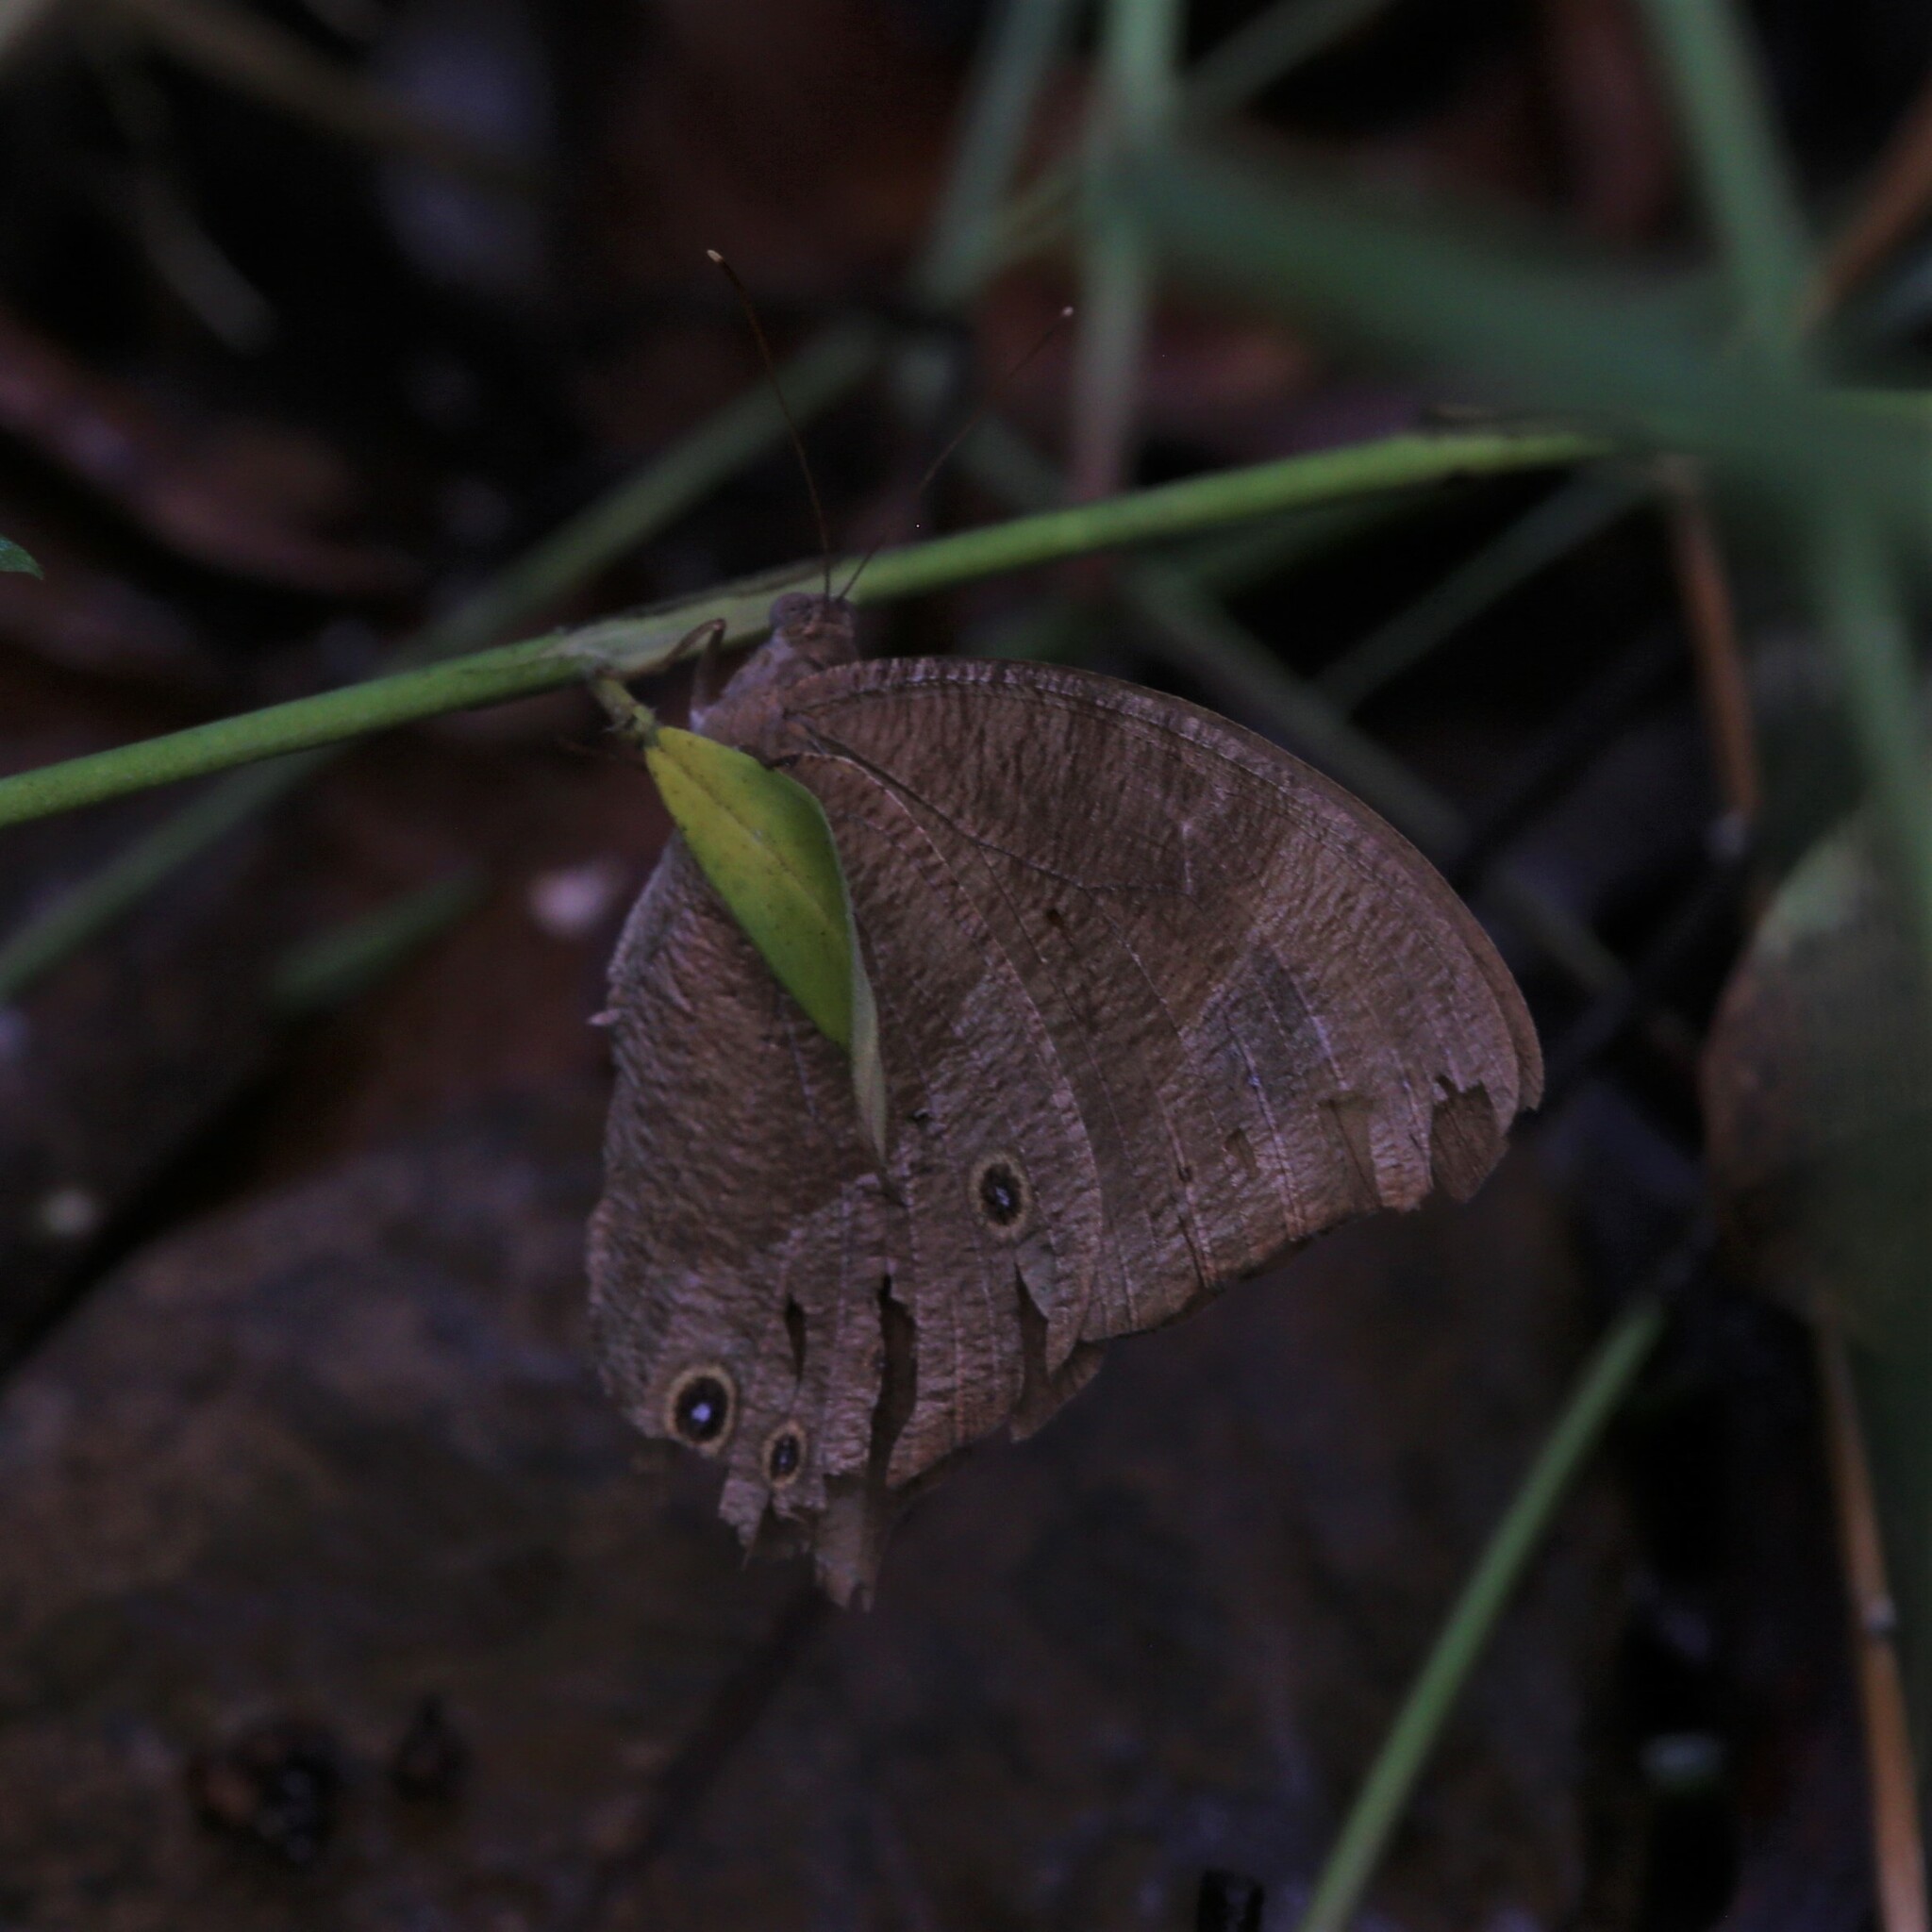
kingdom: Animalia
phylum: Arthropoda
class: Insecta
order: Lepidoptera
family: Nymphalidae
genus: Melanitis
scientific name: Melanitis leda
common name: Twilight brown
